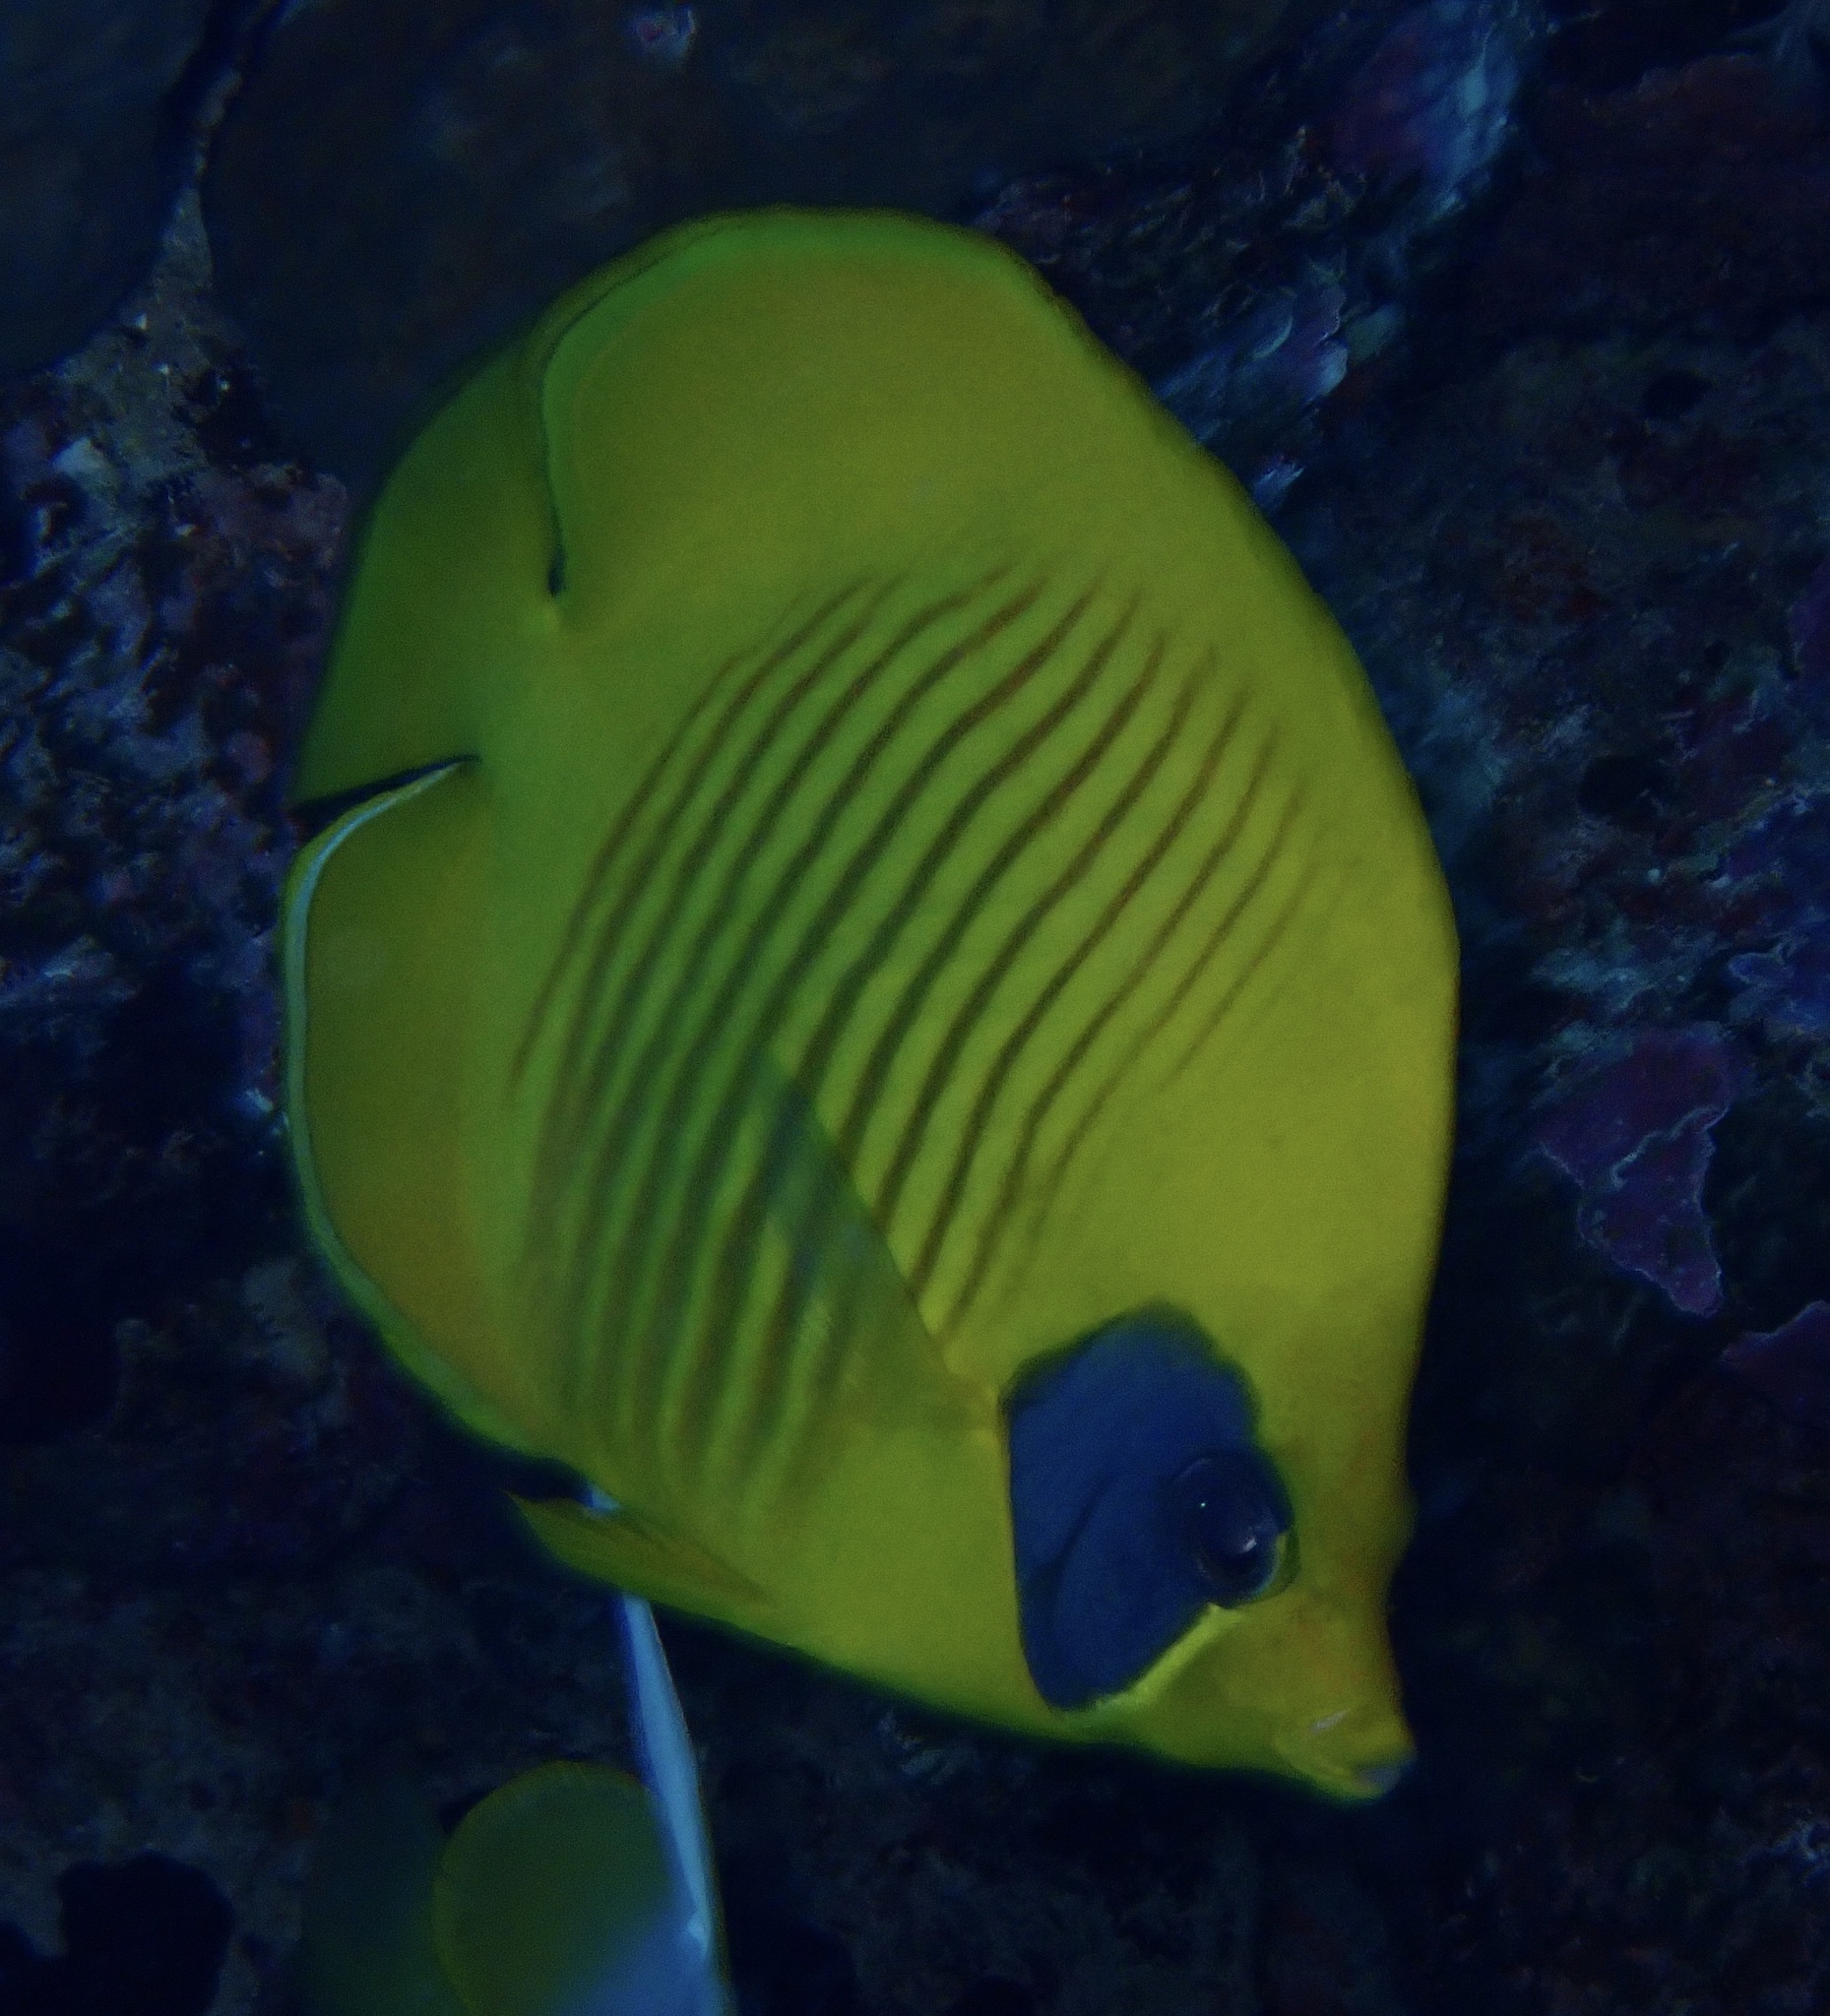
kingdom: Animalia
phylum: Chordata
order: Perciformes
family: Chaetodontidae
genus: Chaetodon
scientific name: Chaetodon semilarvatus
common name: Golden butterflyfish
